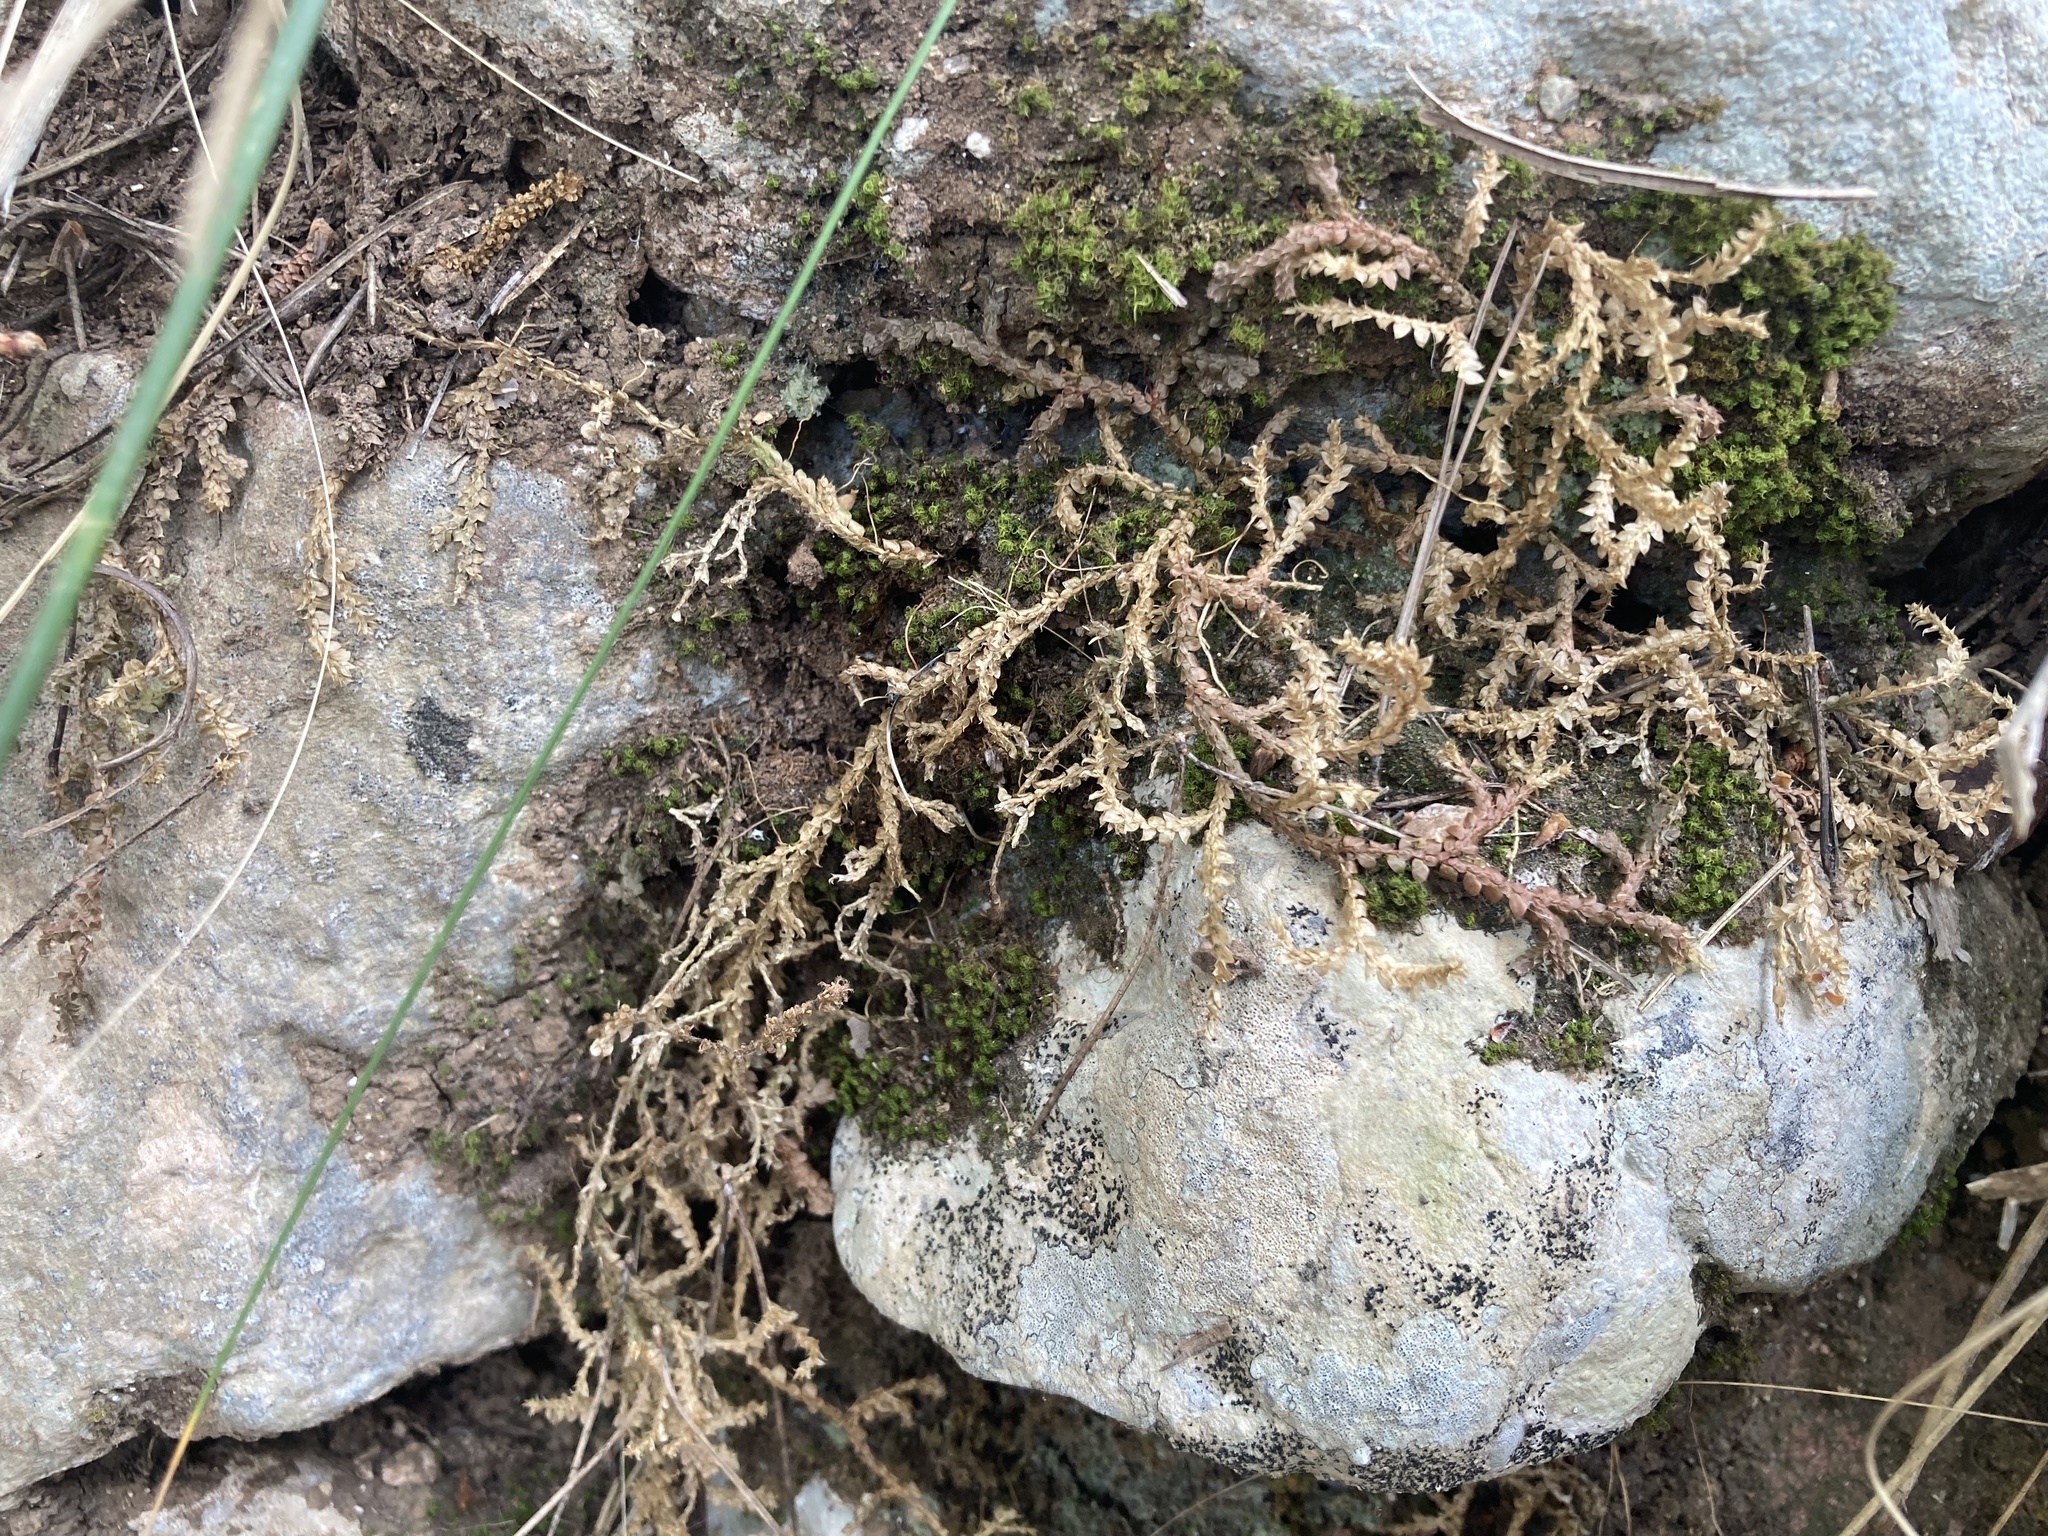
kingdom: Plantae
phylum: Tracheophyta
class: Lycopodiopsida
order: Selaginellales
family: Selaginellaceae
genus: Selaginella
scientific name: Selaginella denticulata
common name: Toothed-leaved clubmoss
